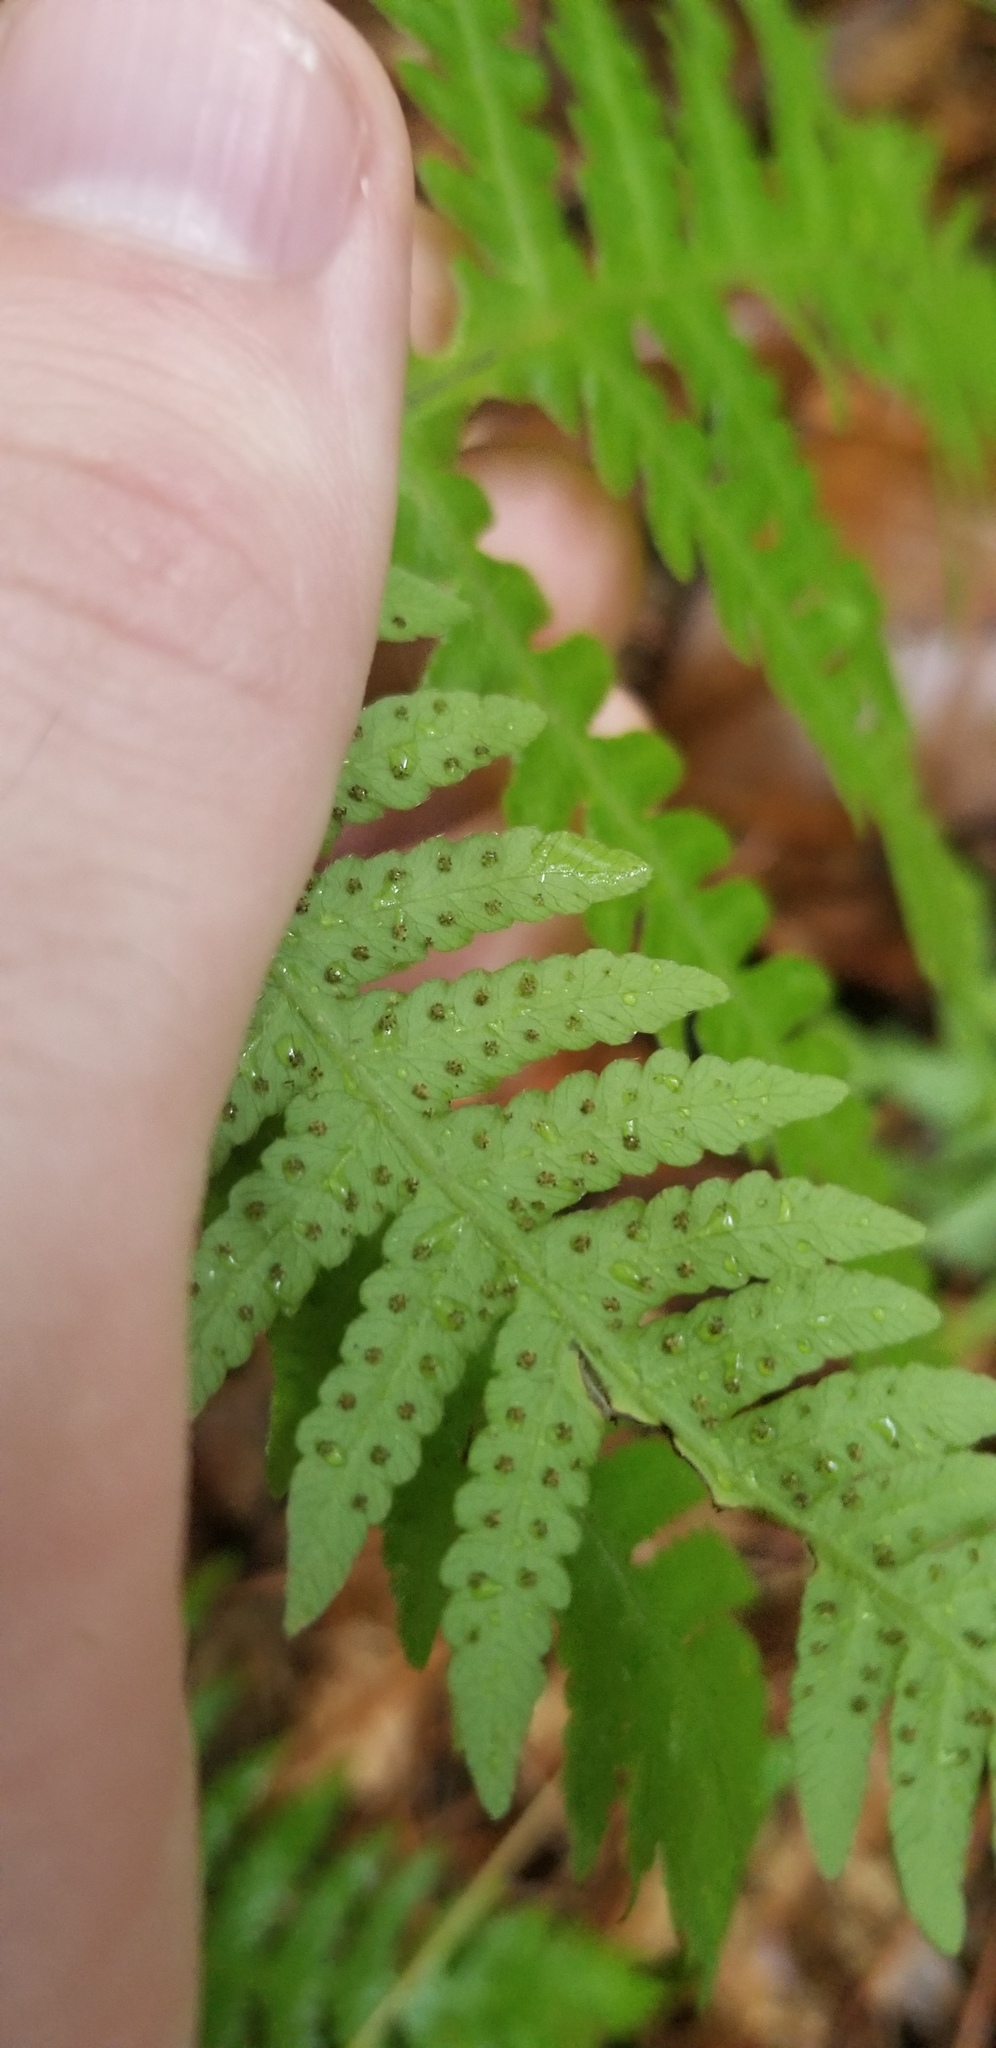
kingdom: Plantae
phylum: Tracheophyta
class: Polypodiopsida
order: Polypodiales
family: Thelypteridaceae
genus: Phegopteris
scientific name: Phegopteris hexagonoptera
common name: Broad beech fern
